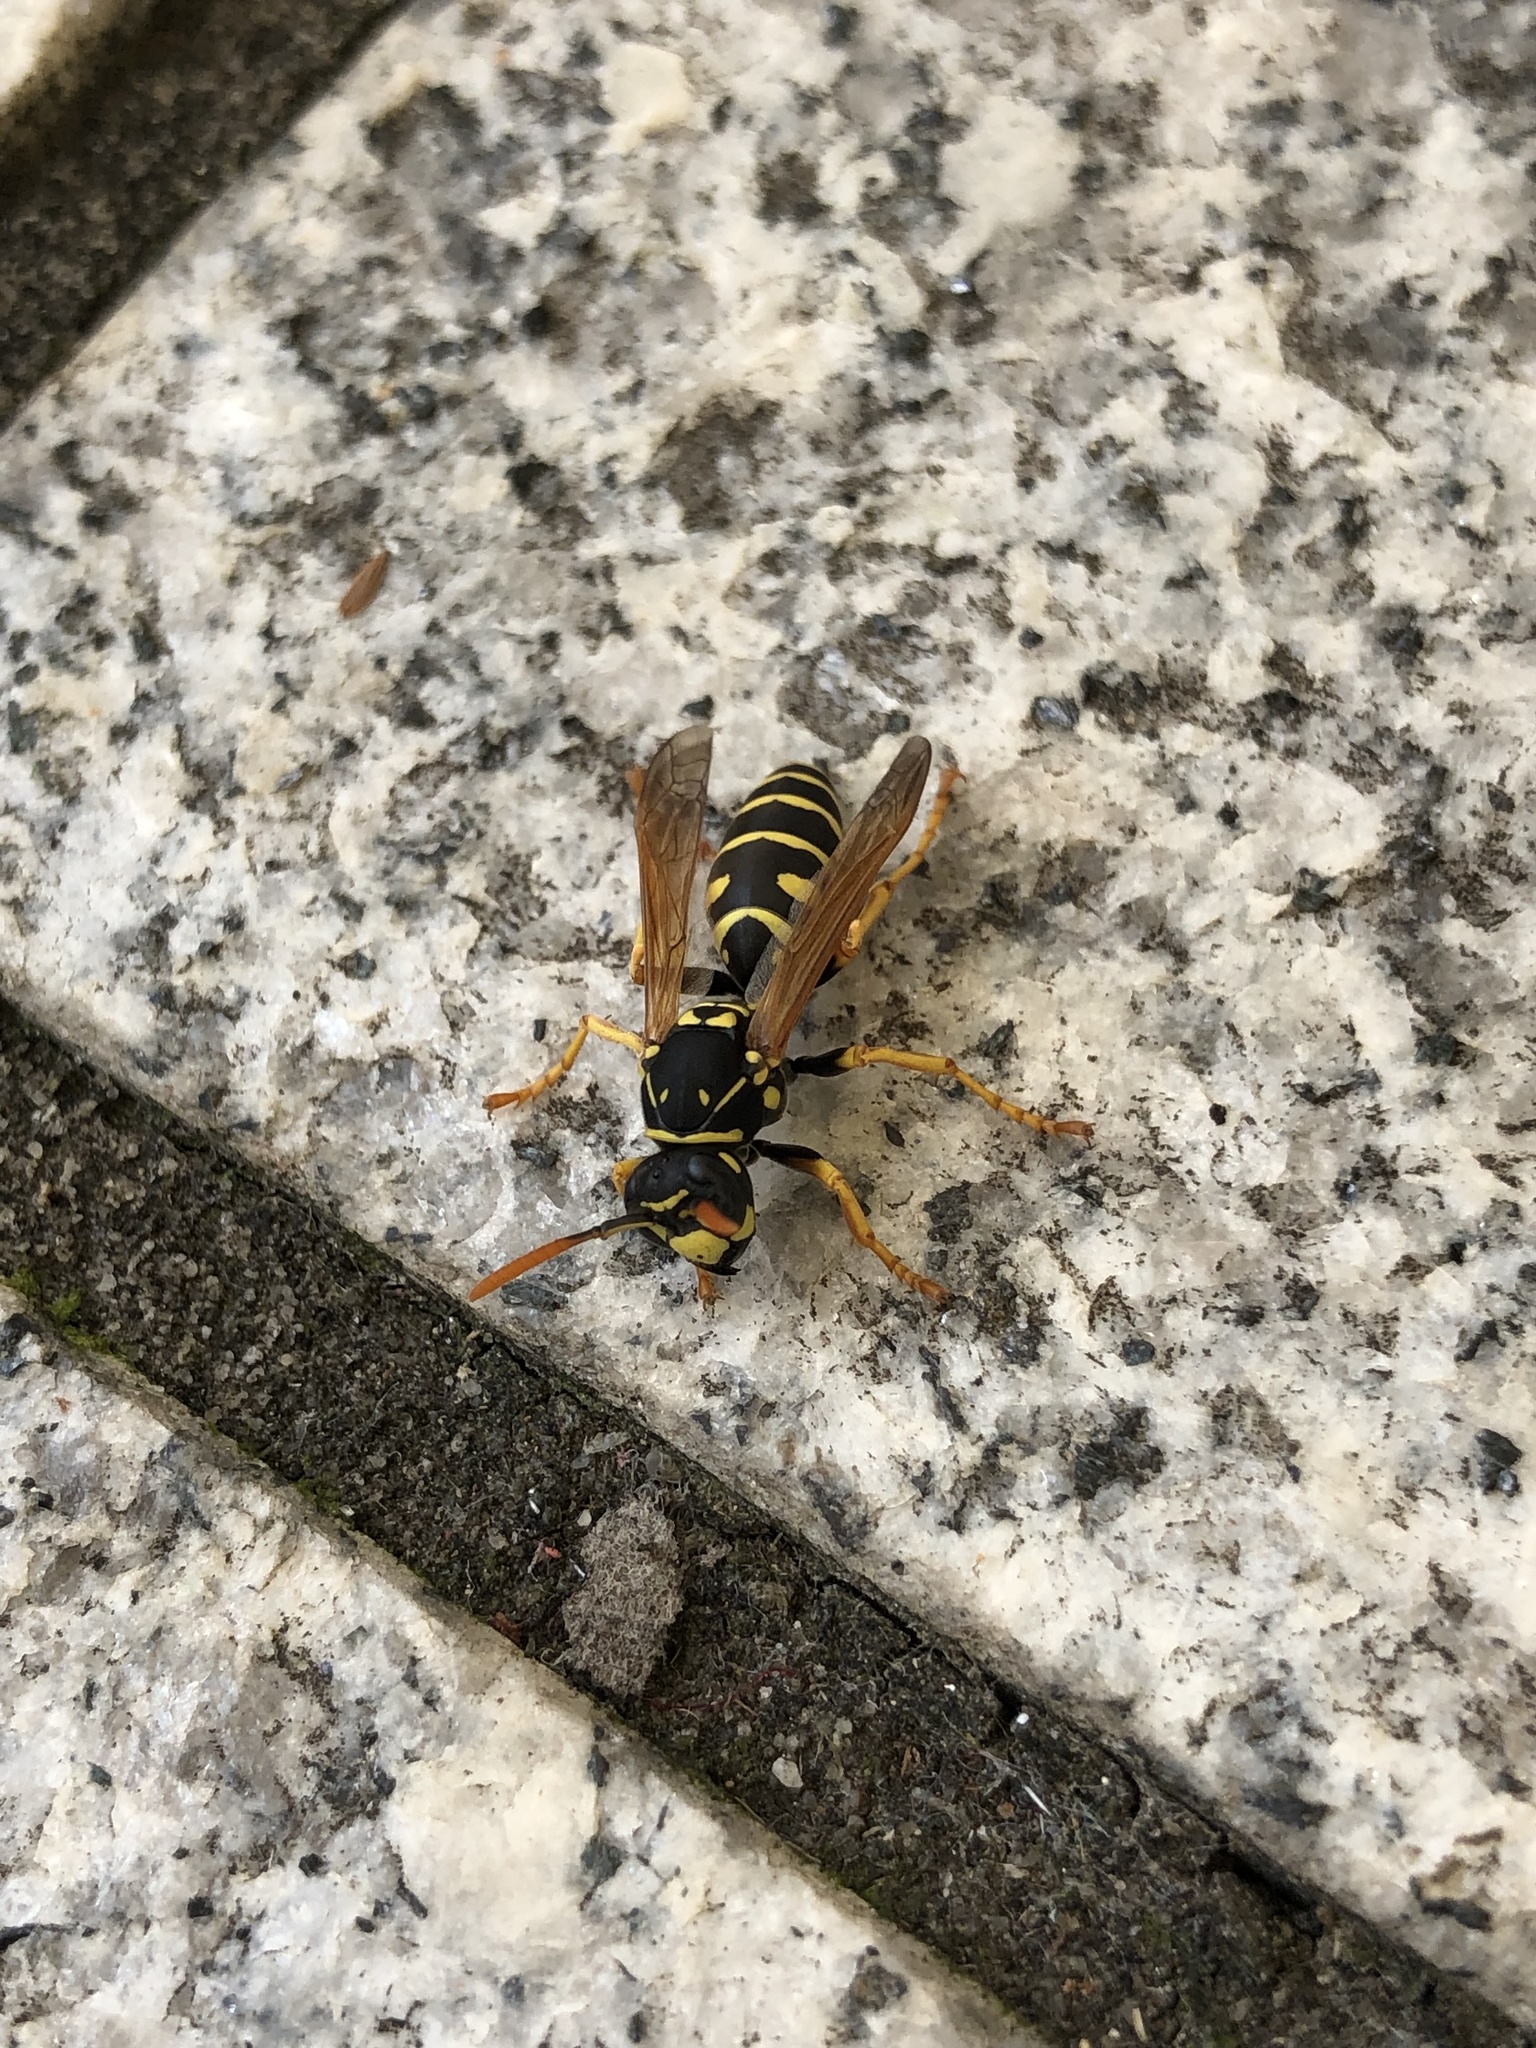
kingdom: Animalia
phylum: Arthropoda
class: Insecta
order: Hymenoptera
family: Eumenidae
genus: Polistes
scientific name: Polistes dominula
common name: Paper wasp
